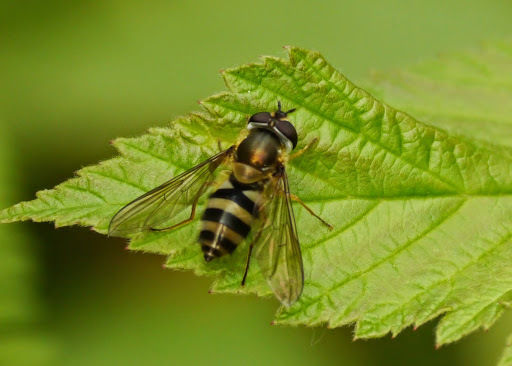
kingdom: Animalia
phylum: Arthropoda
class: Insecta
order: Diptera
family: Syrphidae
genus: Epistrophe
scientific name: Epistrophe grossulariae
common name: Black-horned smoothtail
